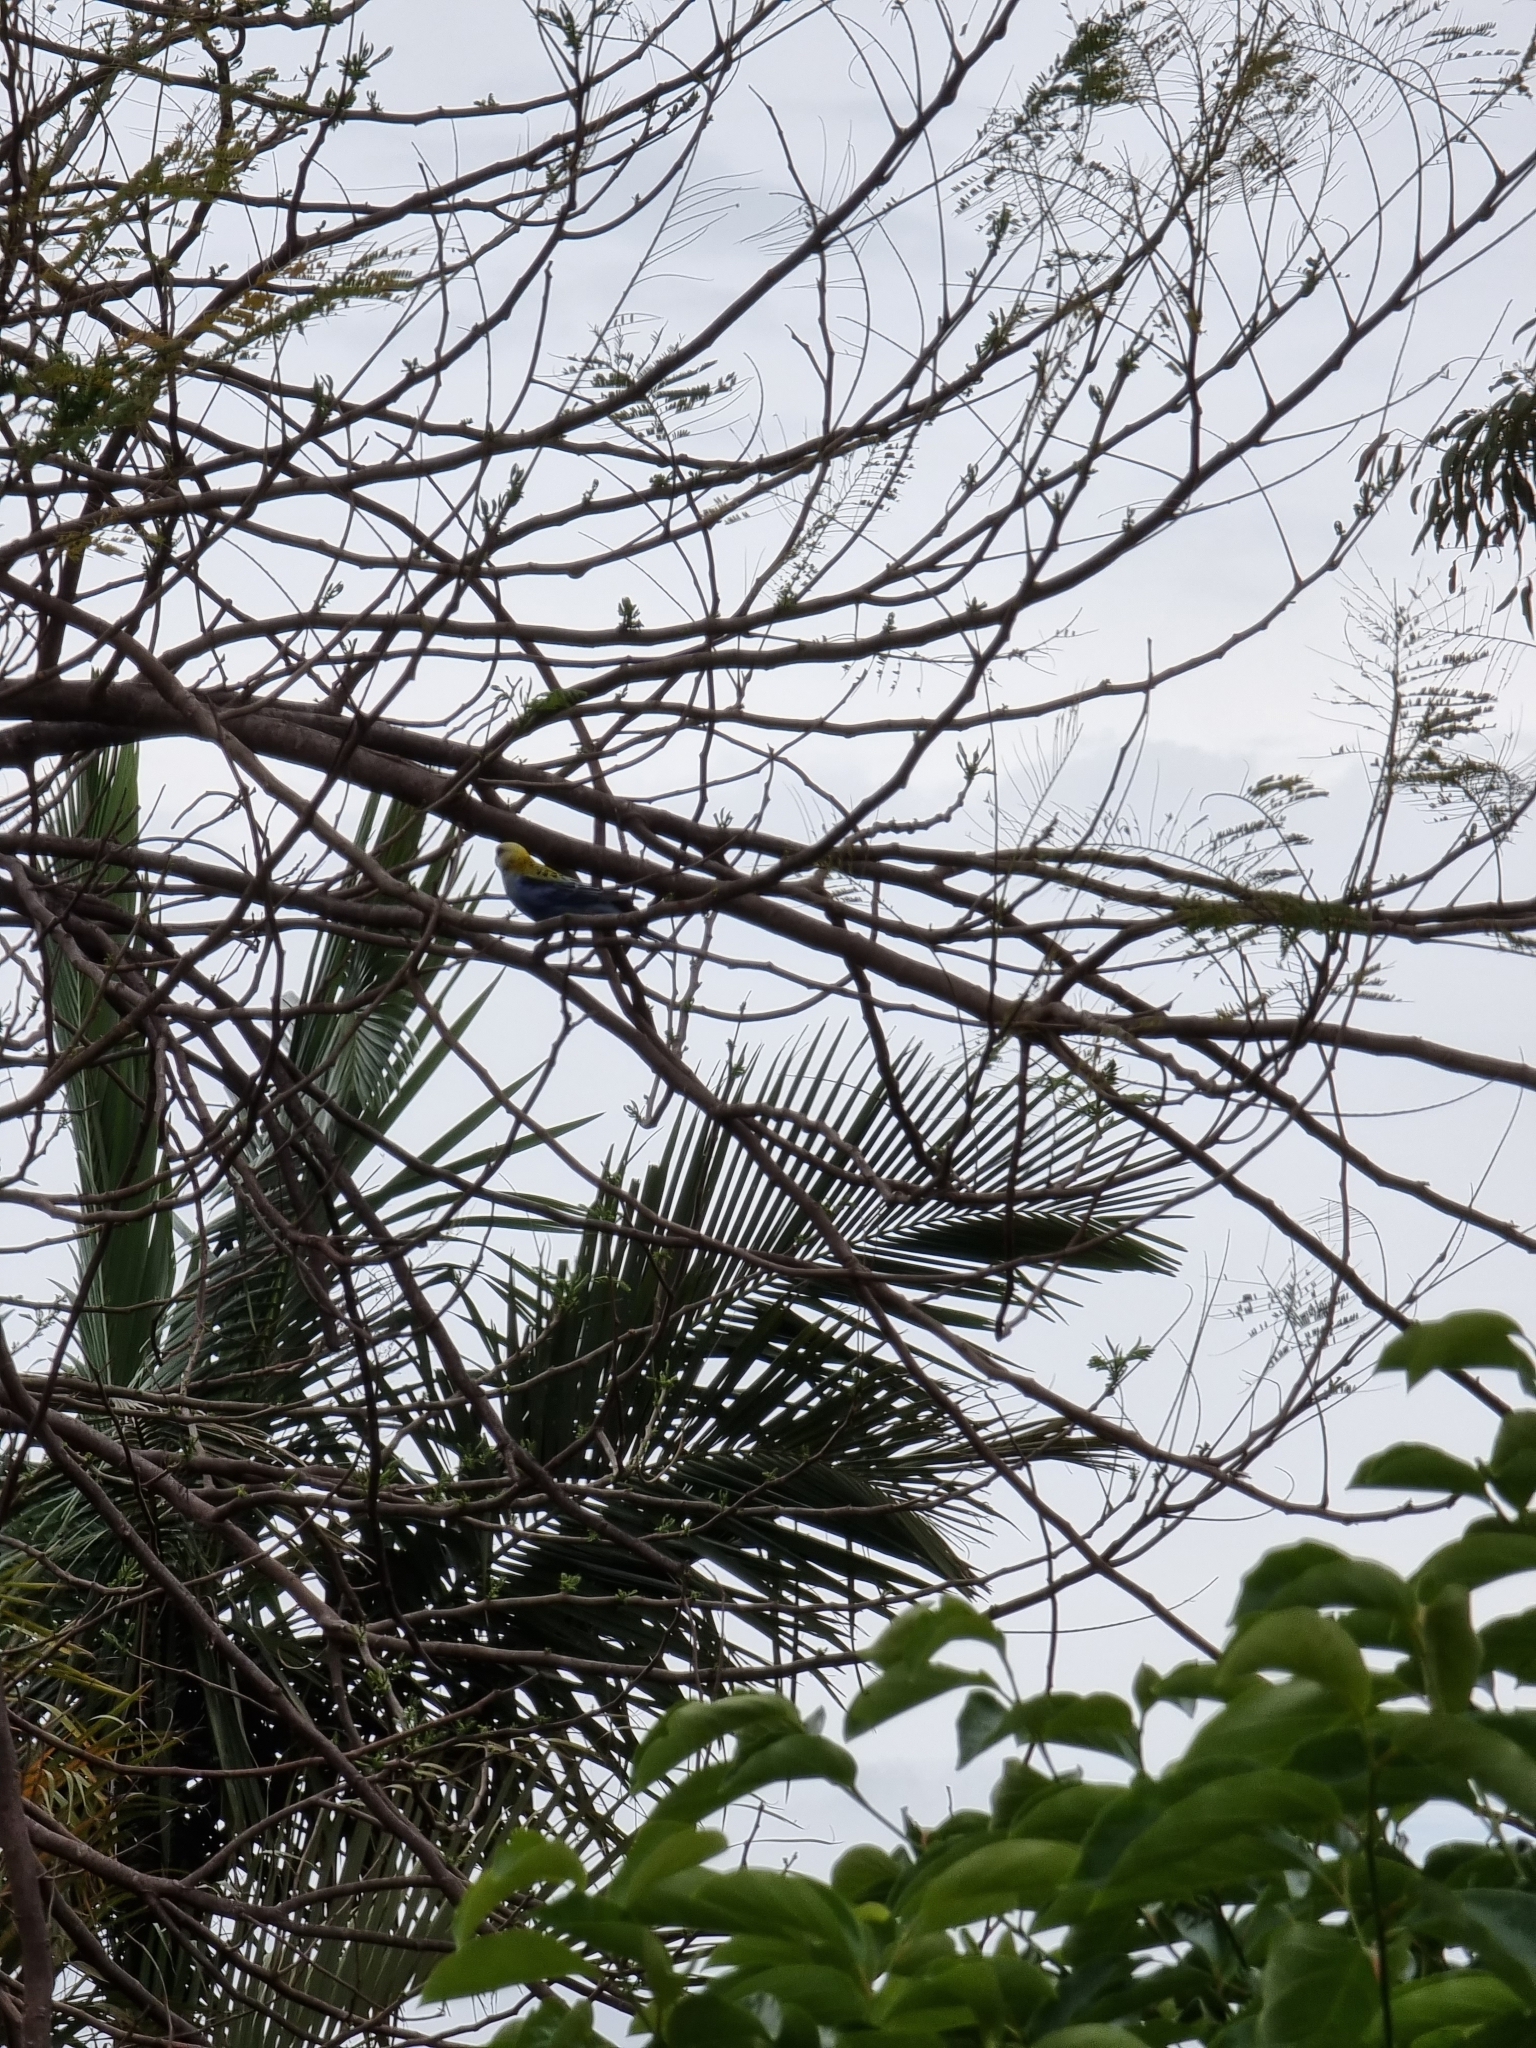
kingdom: Animalia
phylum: Chordata
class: Aves
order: Psittaciformes
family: Psittacidae
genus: Platycercus
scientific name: Platycercus adscitus
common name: Pale-headed rosella
